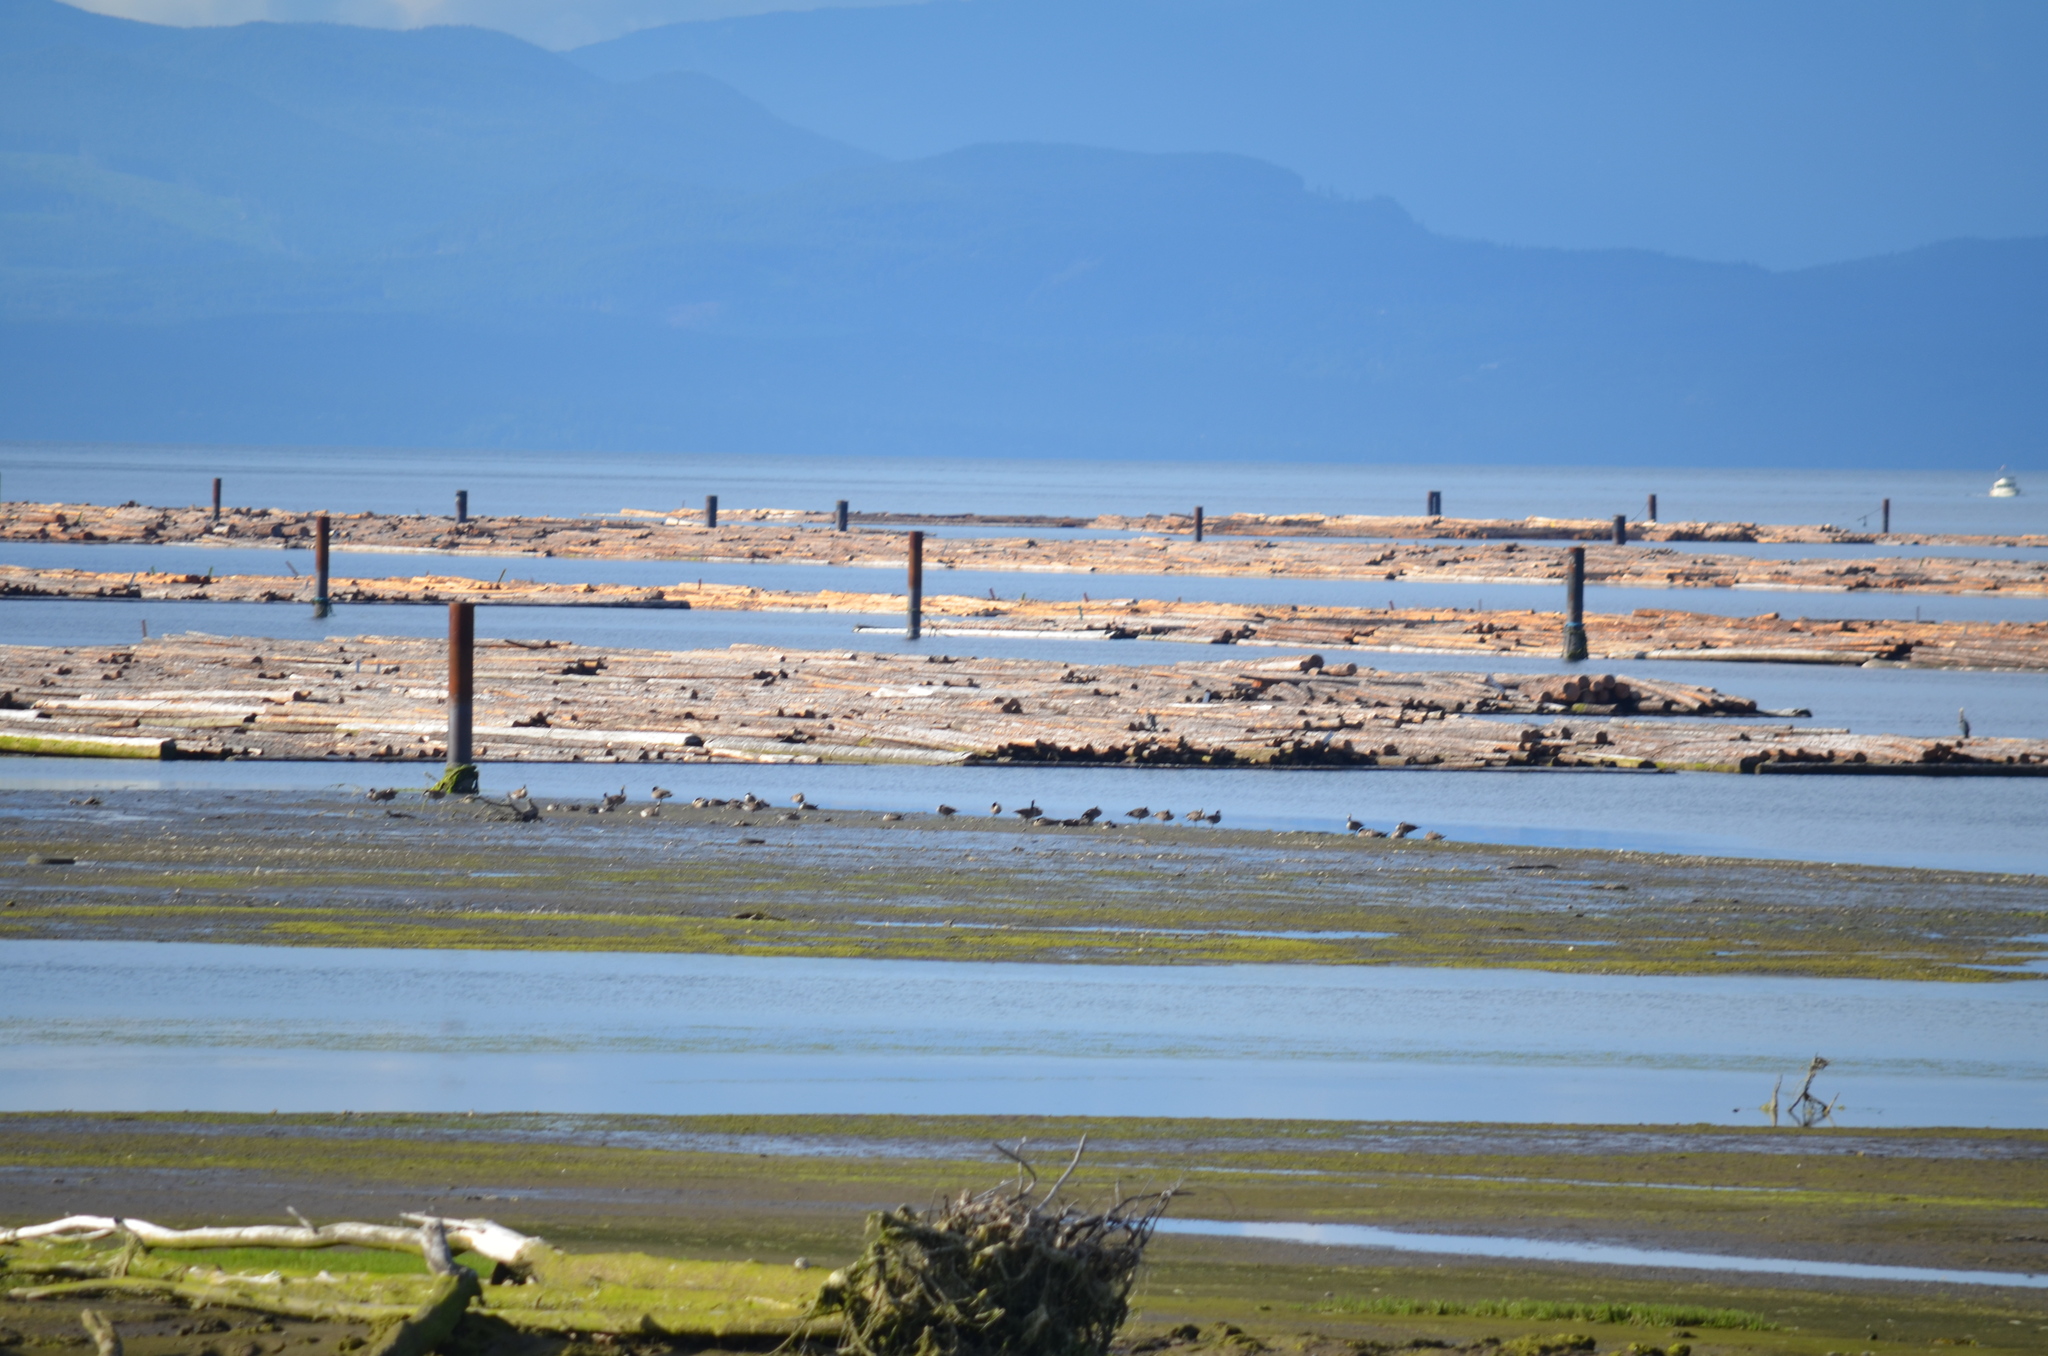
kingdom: Animalia
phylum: Chordata
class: Aves
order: Anseriformes
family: Anatidae
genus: Branta
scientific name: Branta canadensis
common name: Canada goose
